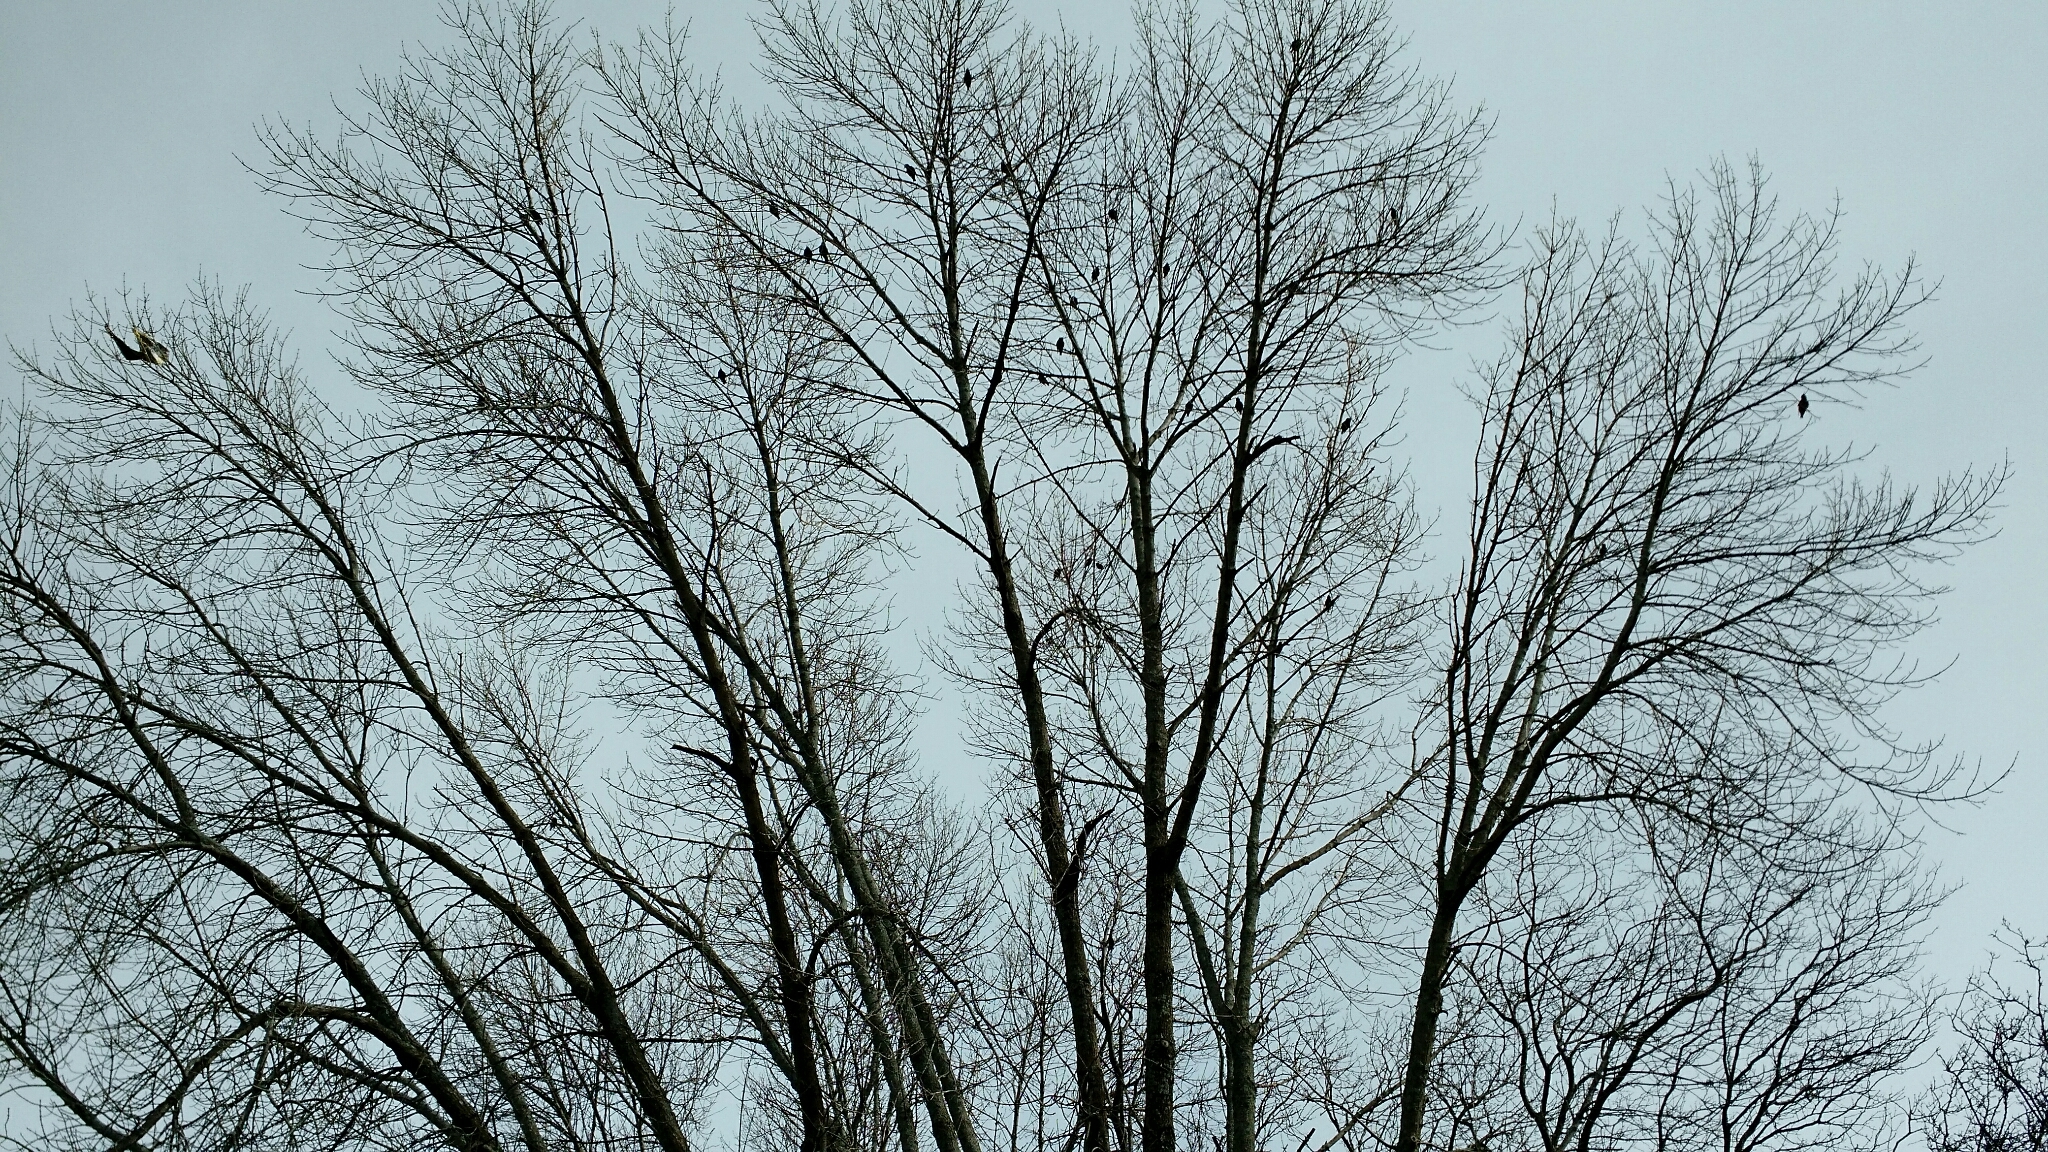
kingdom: Animalia
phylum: Chordata
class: Aves
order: Passeriformes
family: Sturnidae
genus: Sturnus
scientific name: Sturnus vulgaris
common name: Common starling
